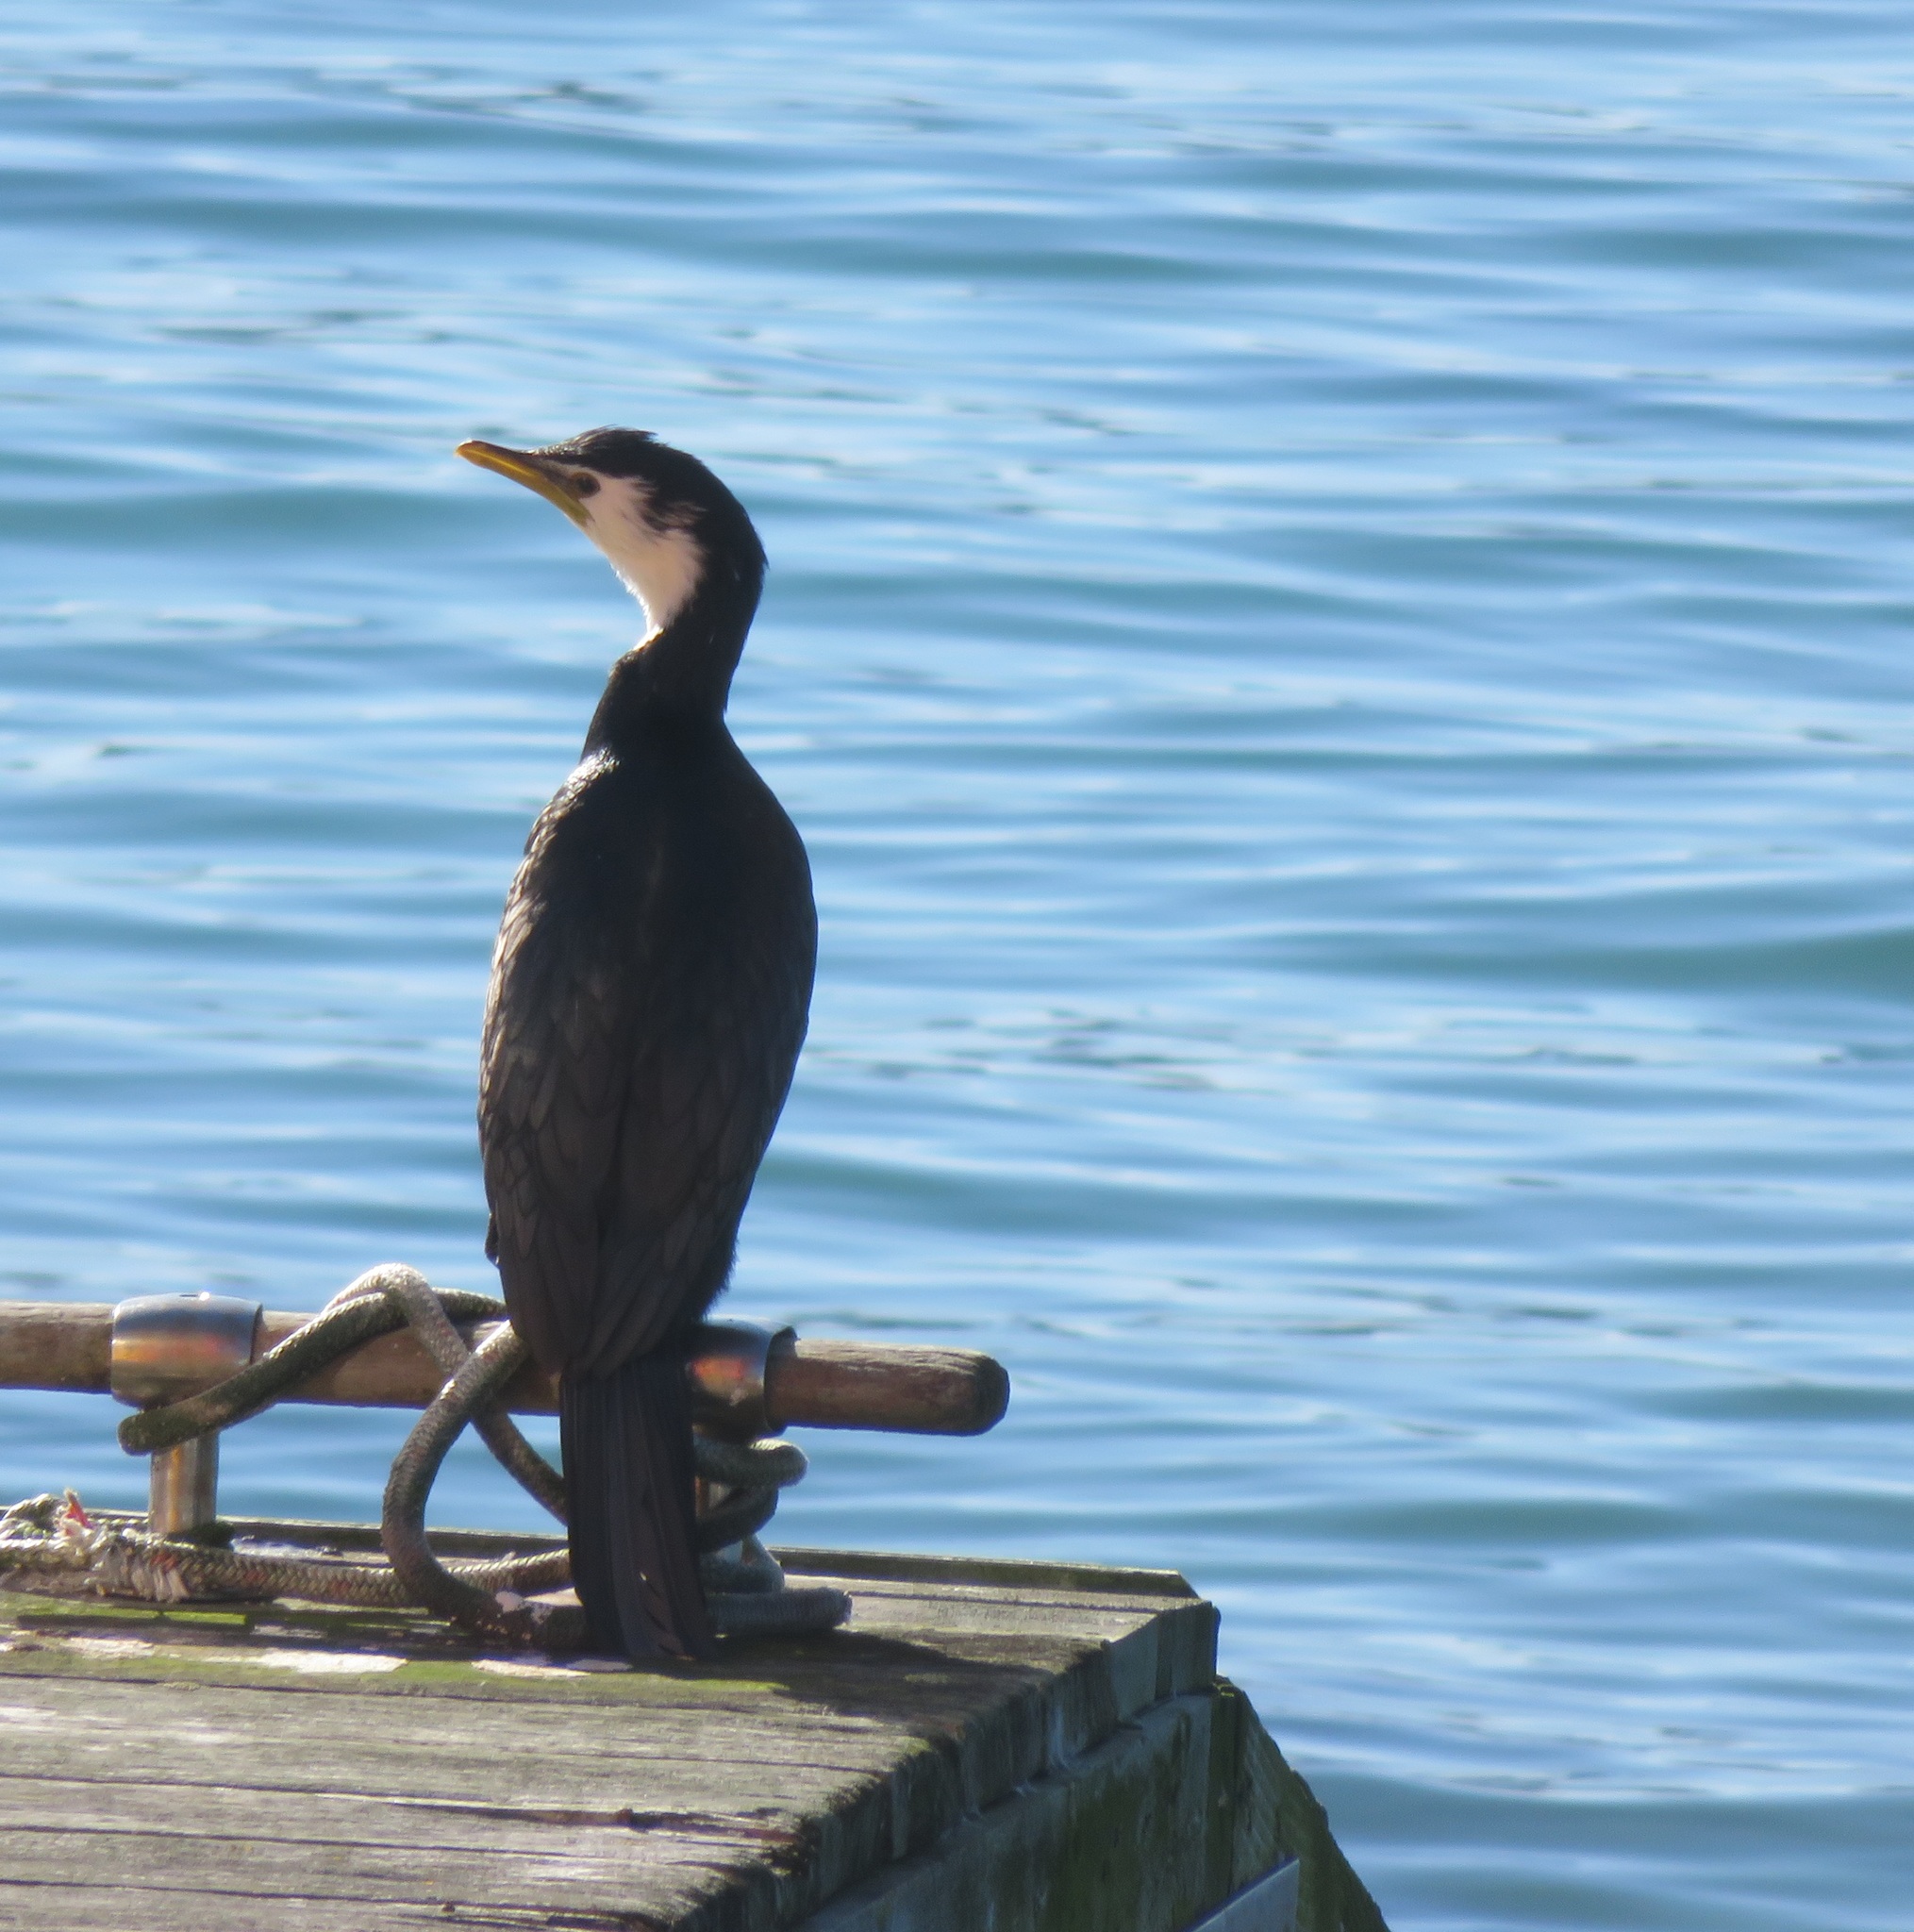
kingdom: Animalia
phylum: Chordata
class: Aves
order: Suliformes
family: Phalacrocoracidae
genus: Microcarbo
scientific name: Microcarbo melanoleucos
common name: Little pied cormorant
